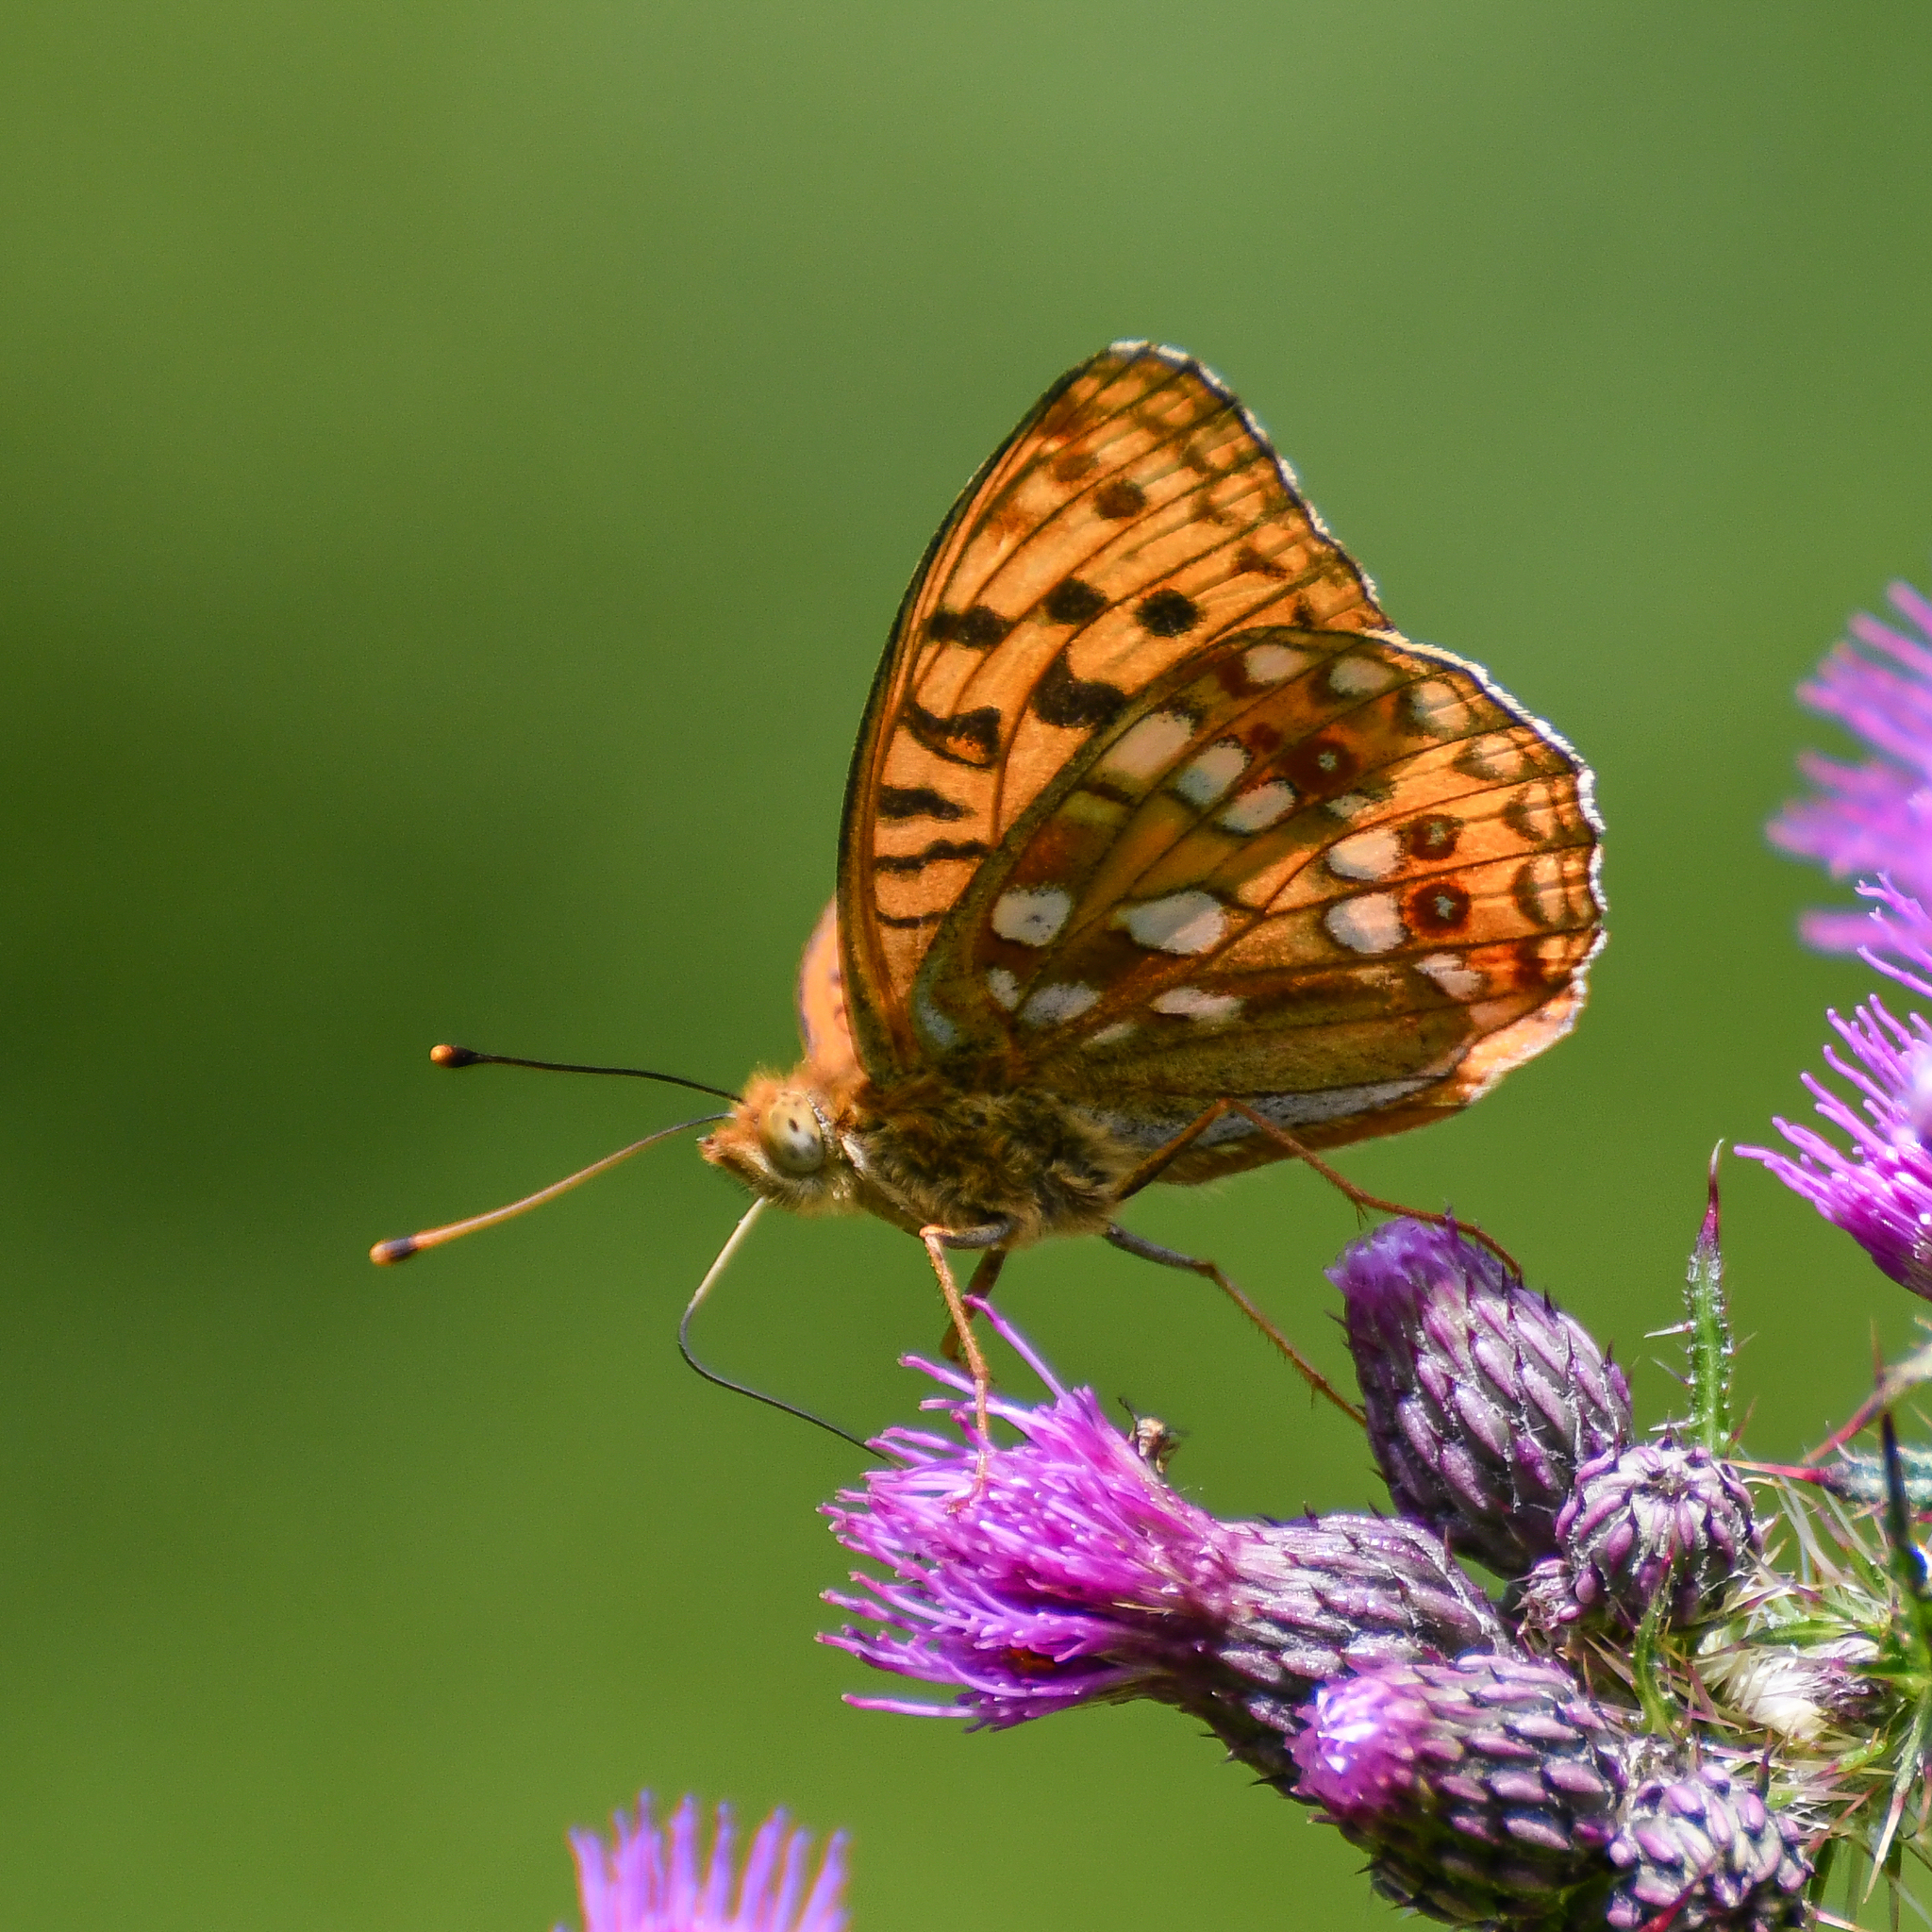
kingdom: Animalia
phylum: Arthropoda
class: Insecta
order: Lepidoptera
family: Nymphalidae
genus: Fabriciana
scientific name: Fabriciana adippe
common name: High brown fritillary
